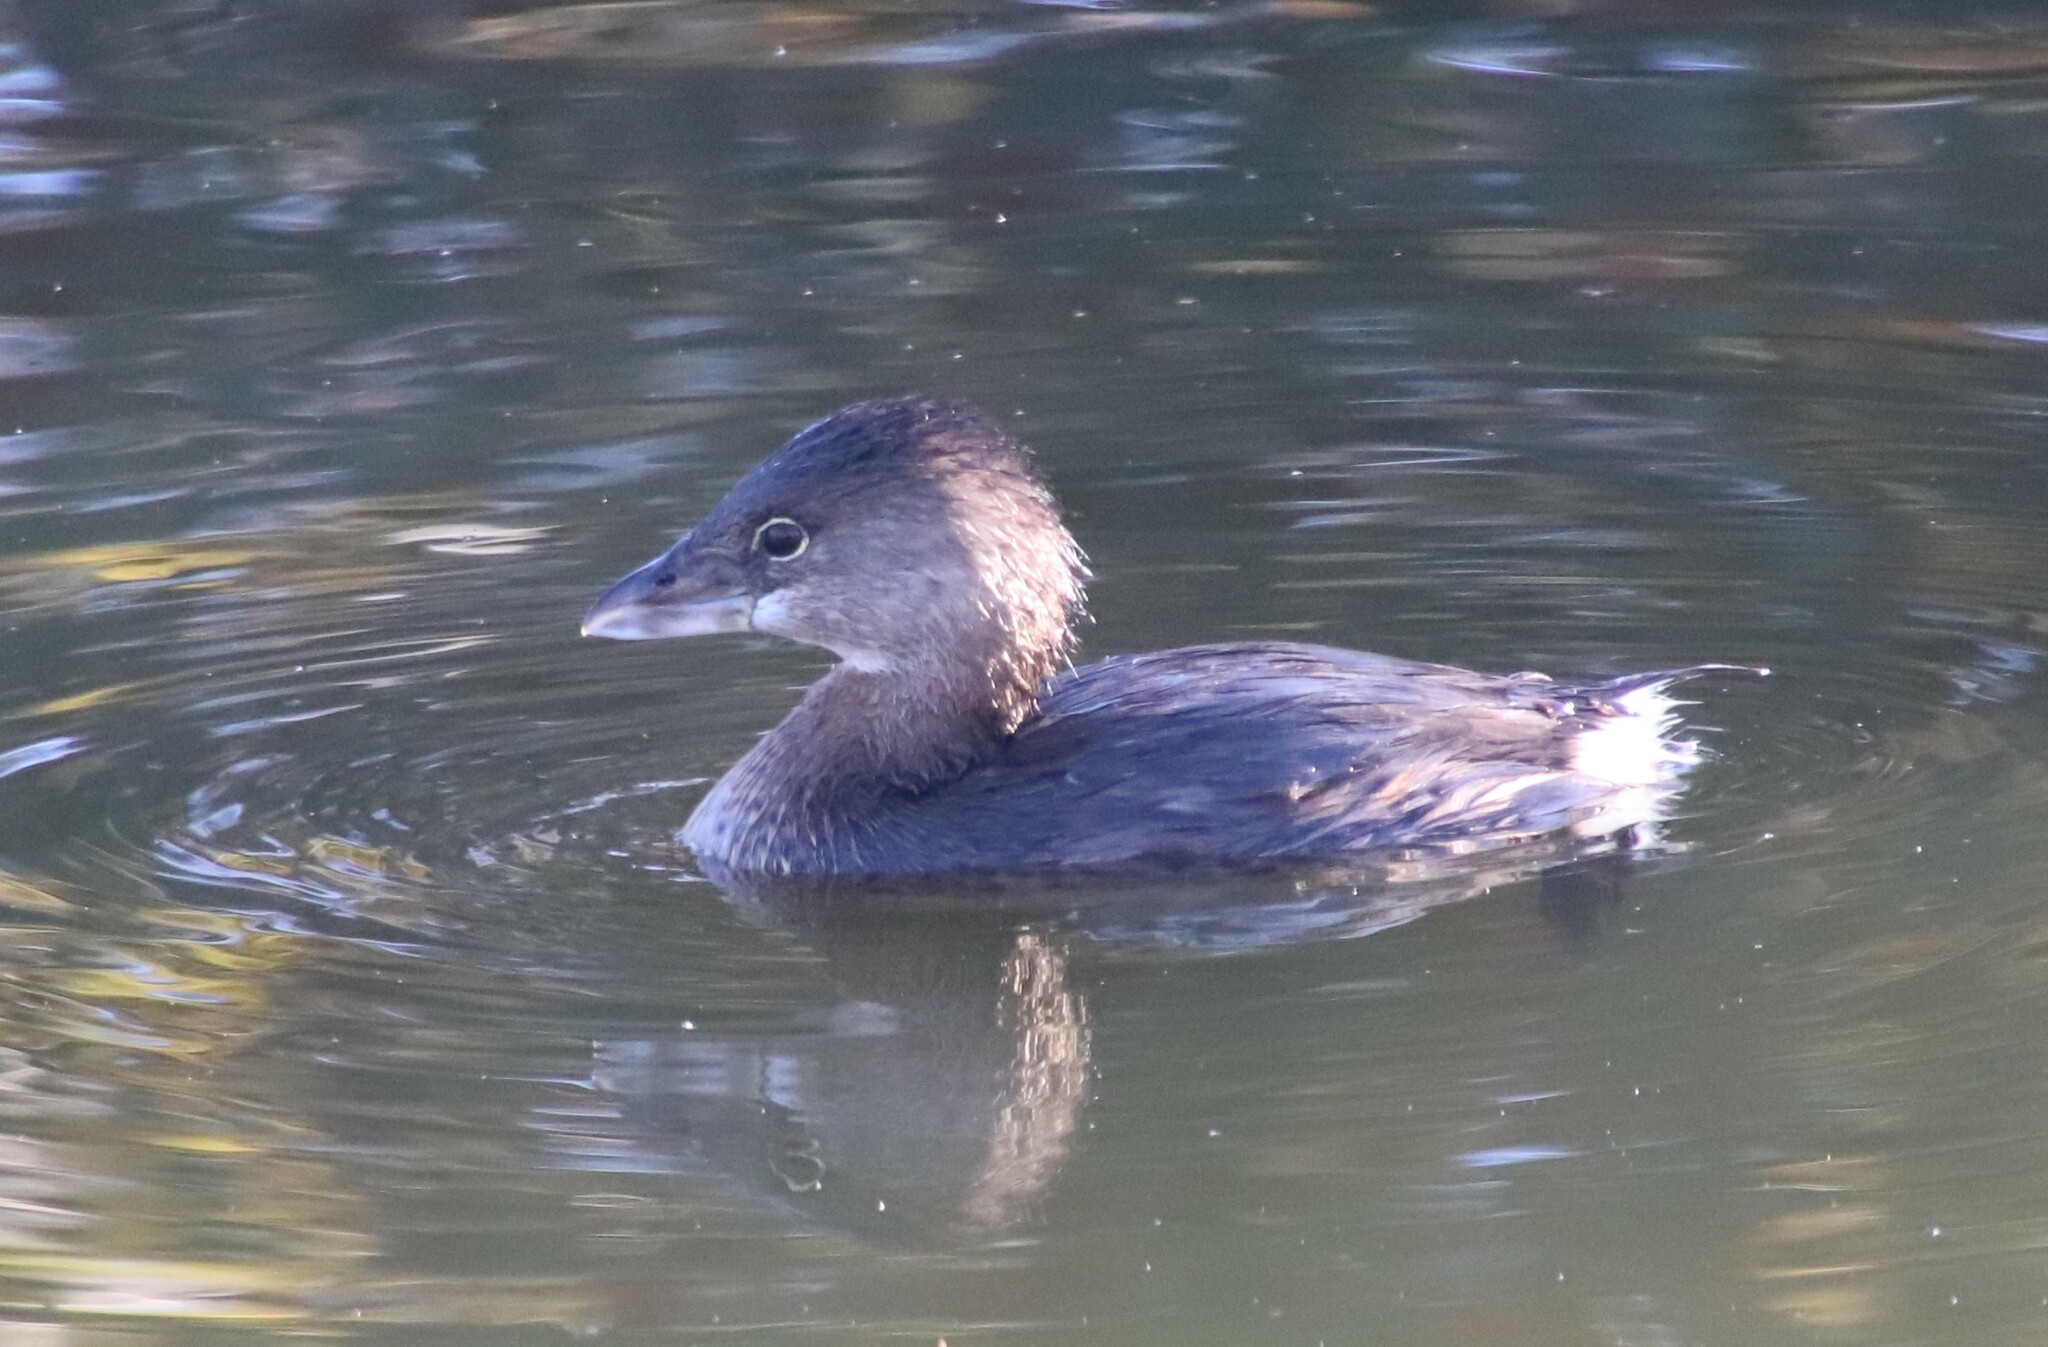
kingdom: Animalia
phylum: Chordata
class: Aves
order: Podicipediformes
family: Podicipedidae
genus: Podilymbus
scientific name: Podilymbus podiceps
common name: Pied-billed grebe
